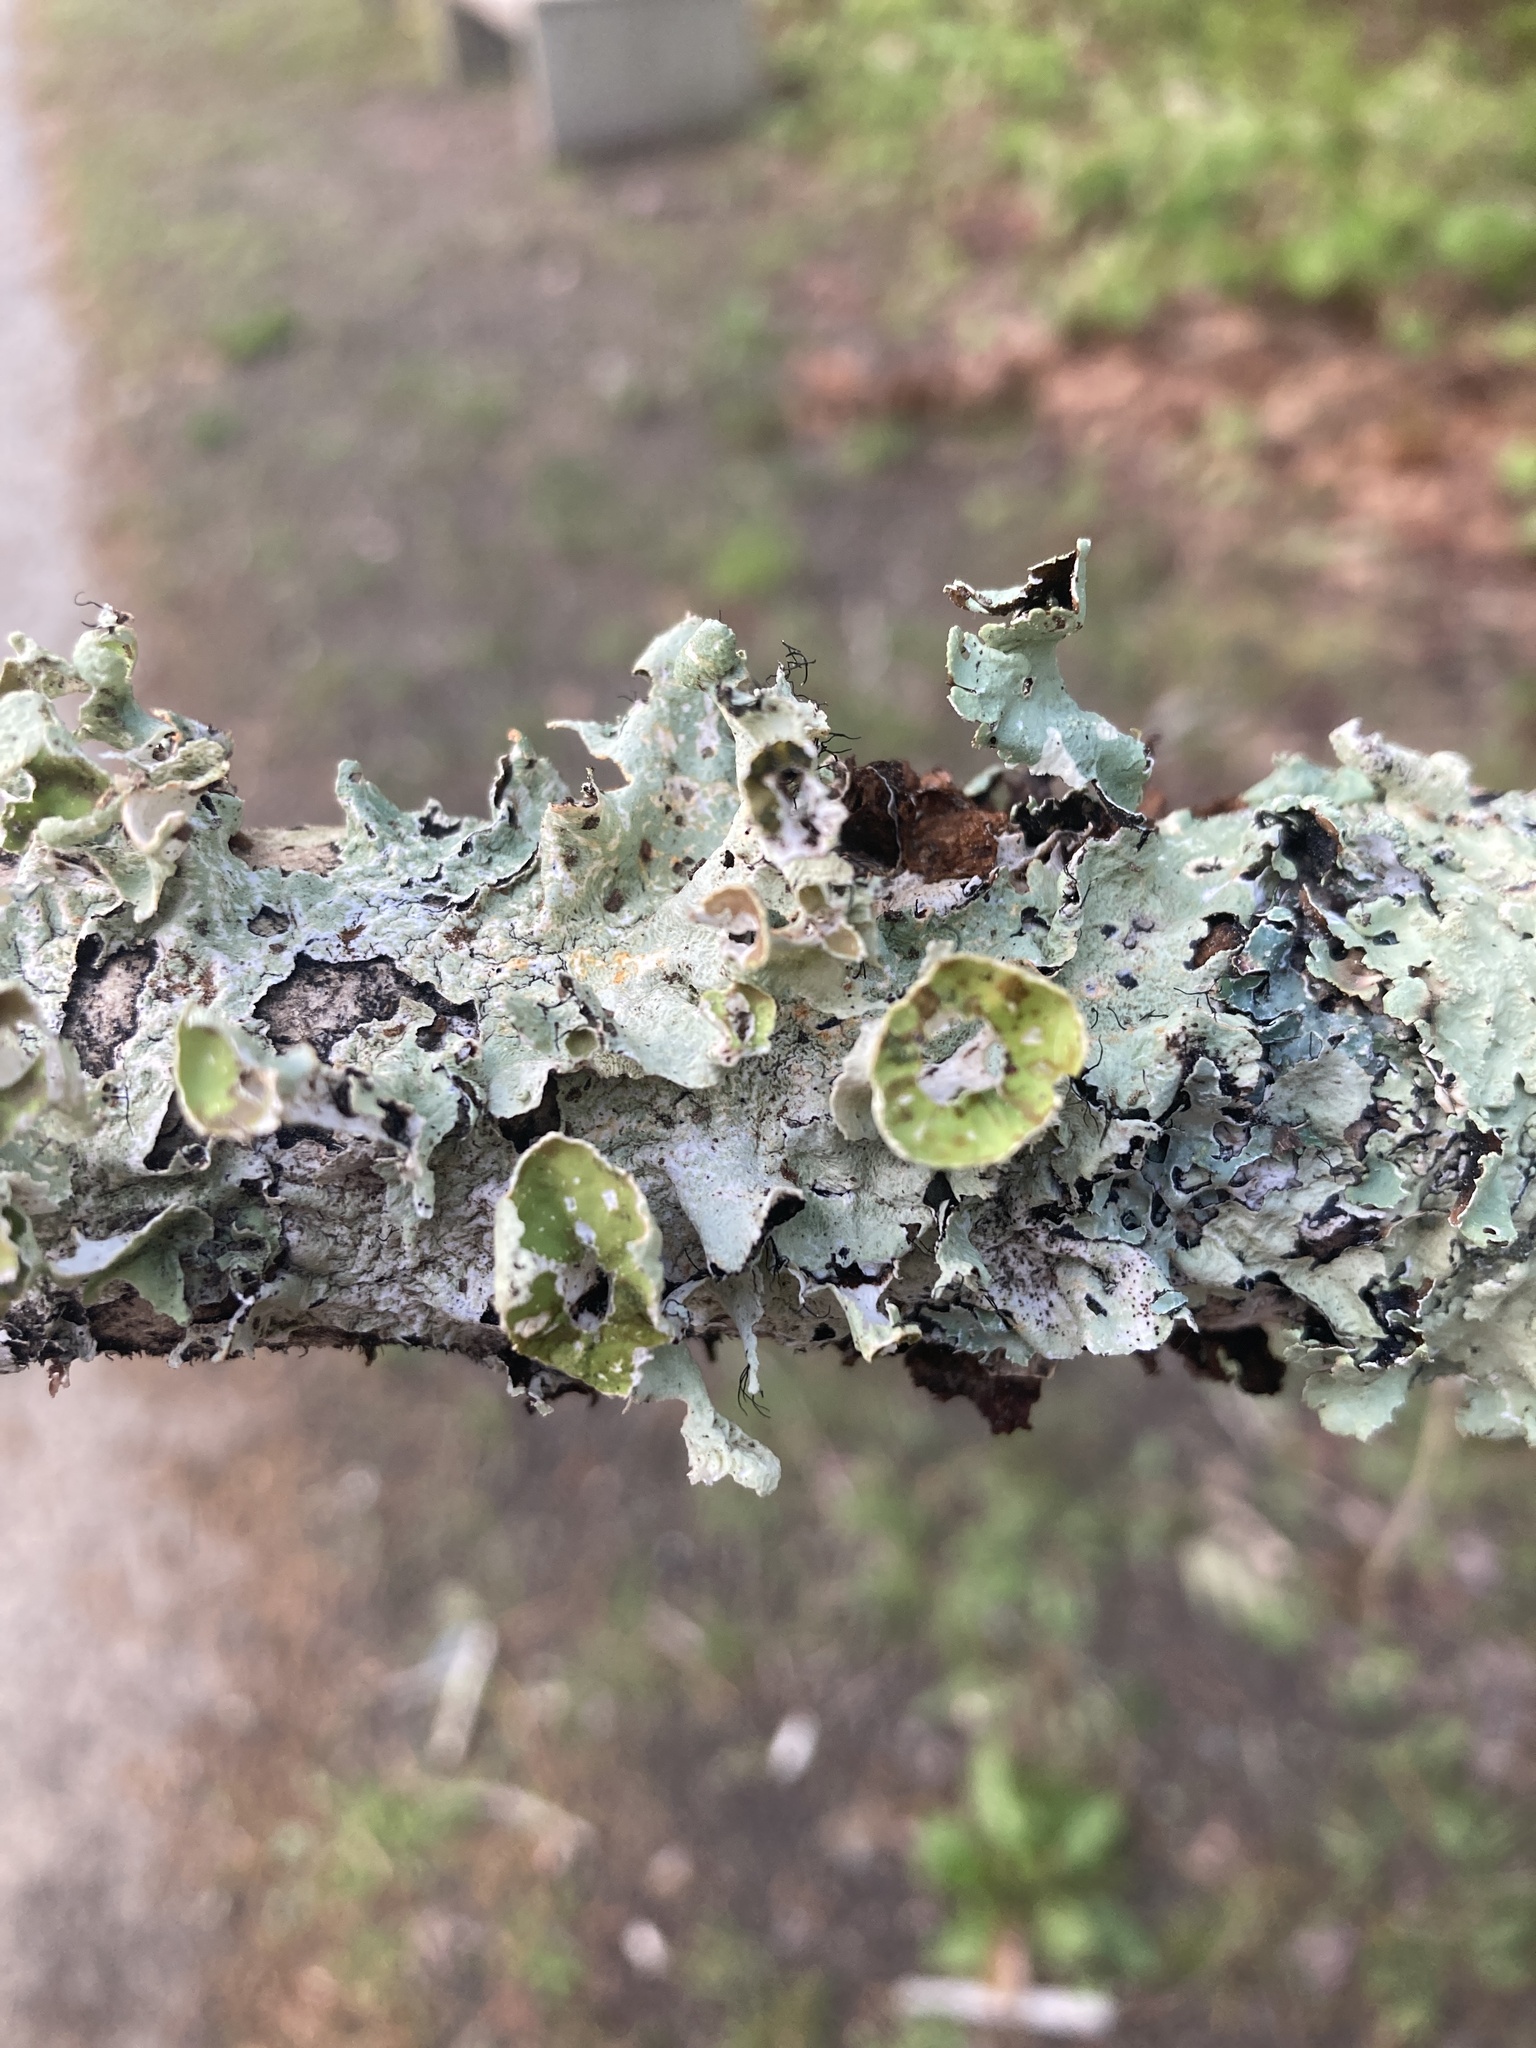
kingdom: Fungi
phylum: Ascomycota
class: Lecanoromycetes
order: Lecanorales
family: Parmeliaceae
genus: Parmotrema
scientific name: Parmotrema perforatum
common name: Perforated ruffle lichen
